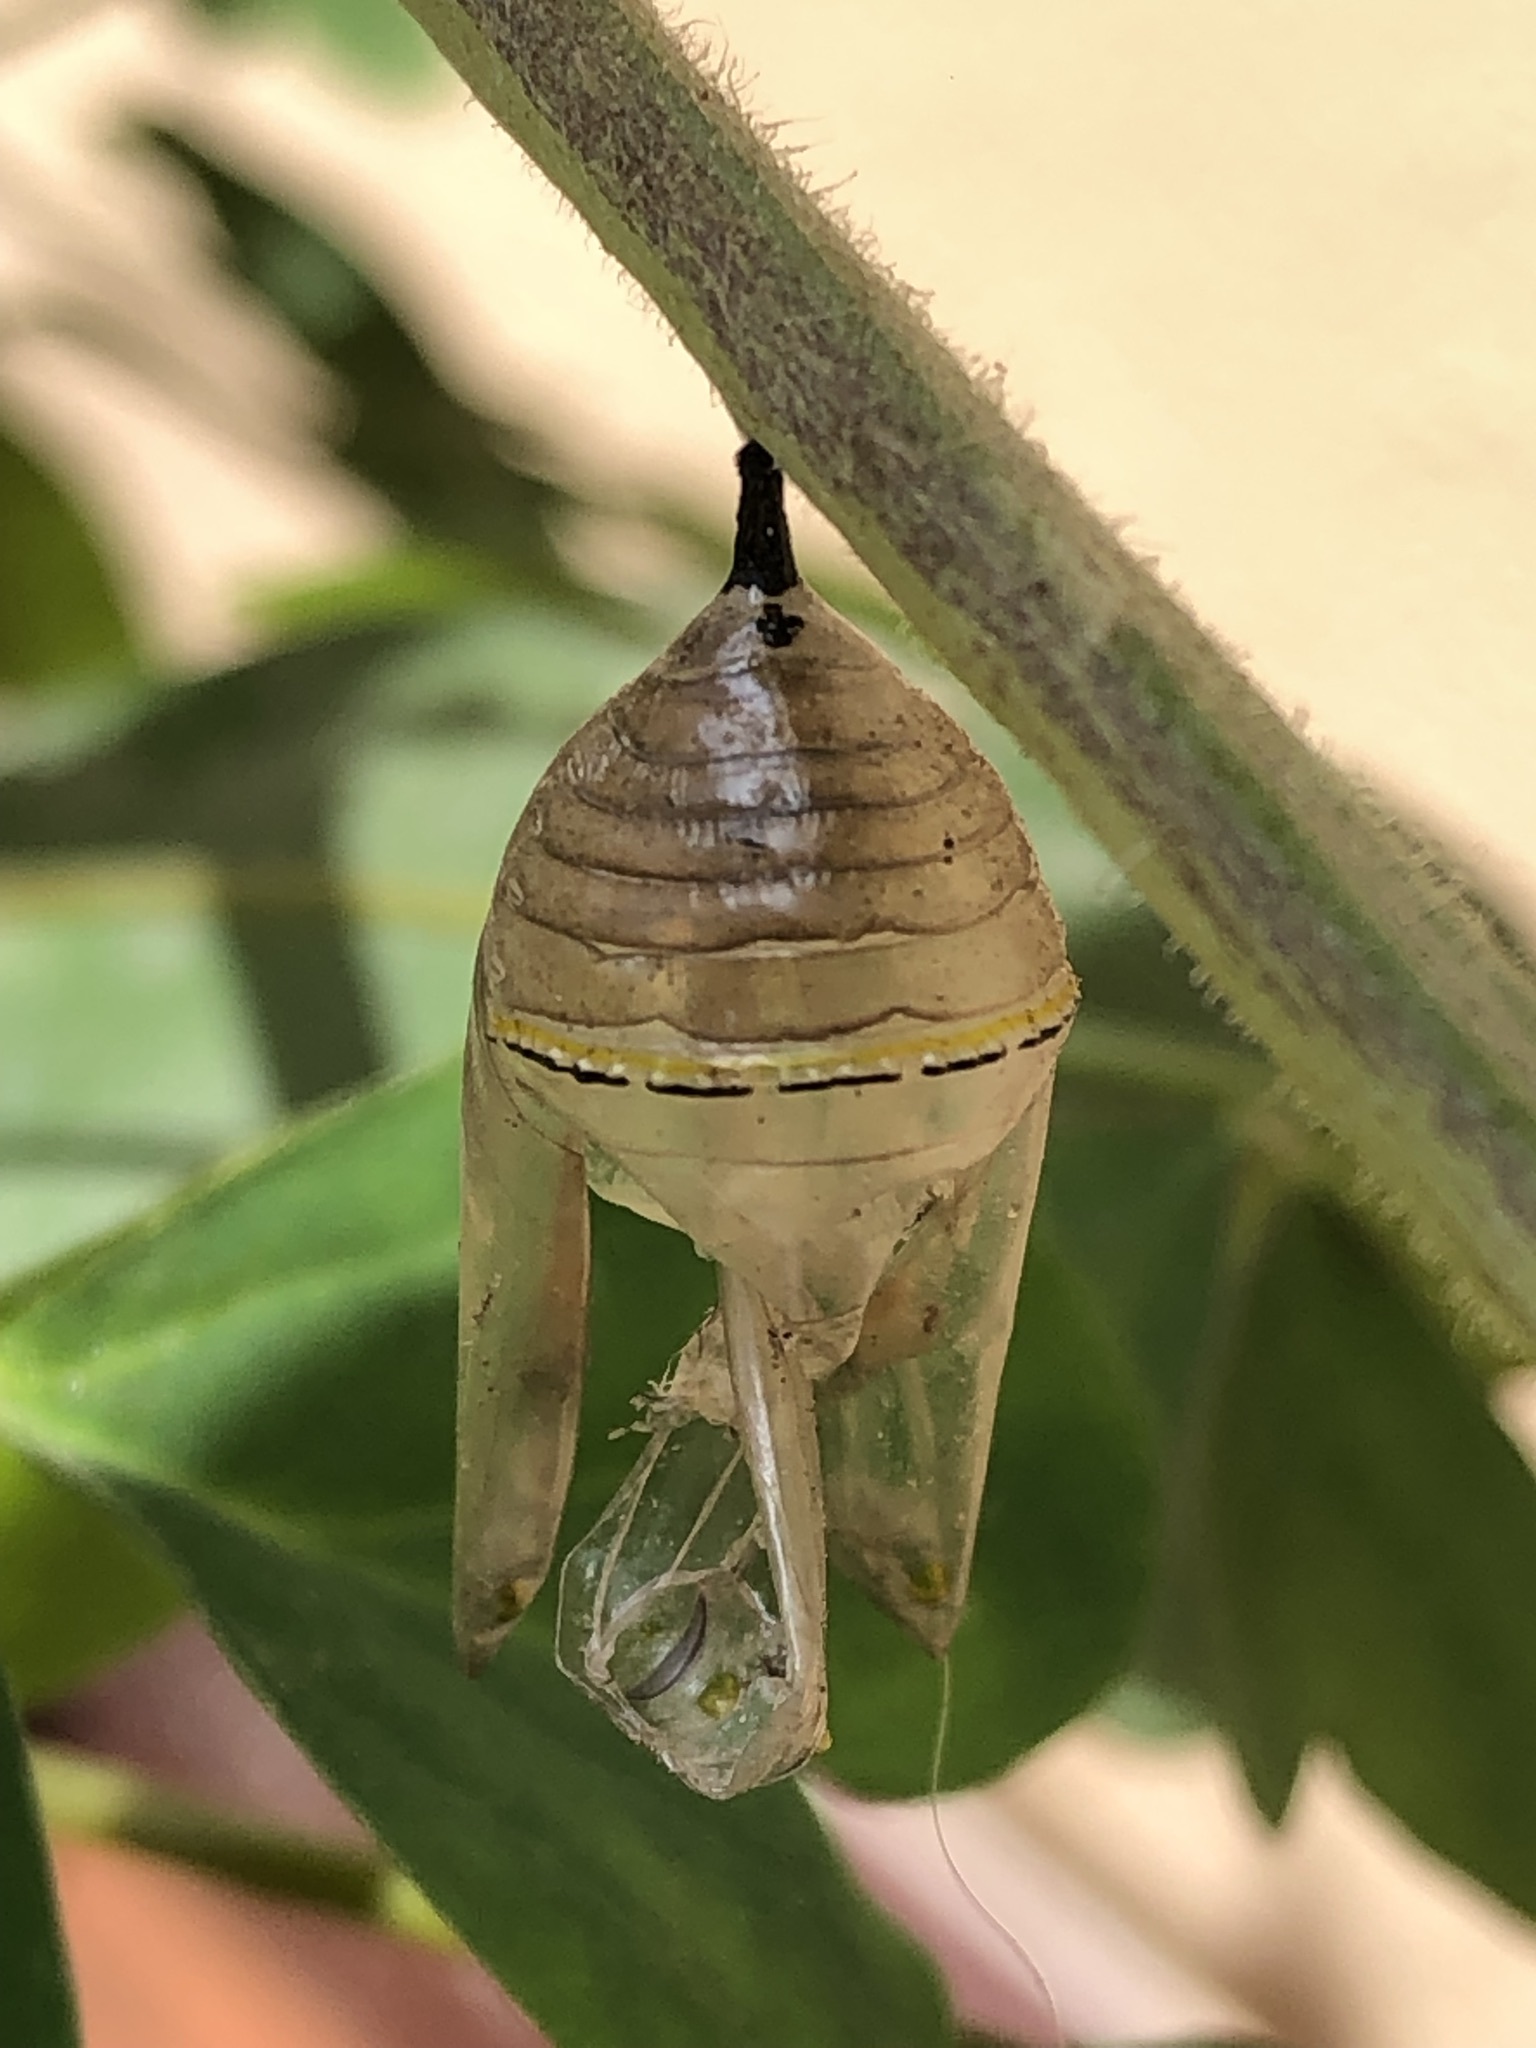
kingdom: Animalia
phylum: Arthropoda
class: Insecta
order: Lepidoptera
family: Nymphalidae
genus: Danaus
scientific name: Danaus plexippus
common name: Monarch
